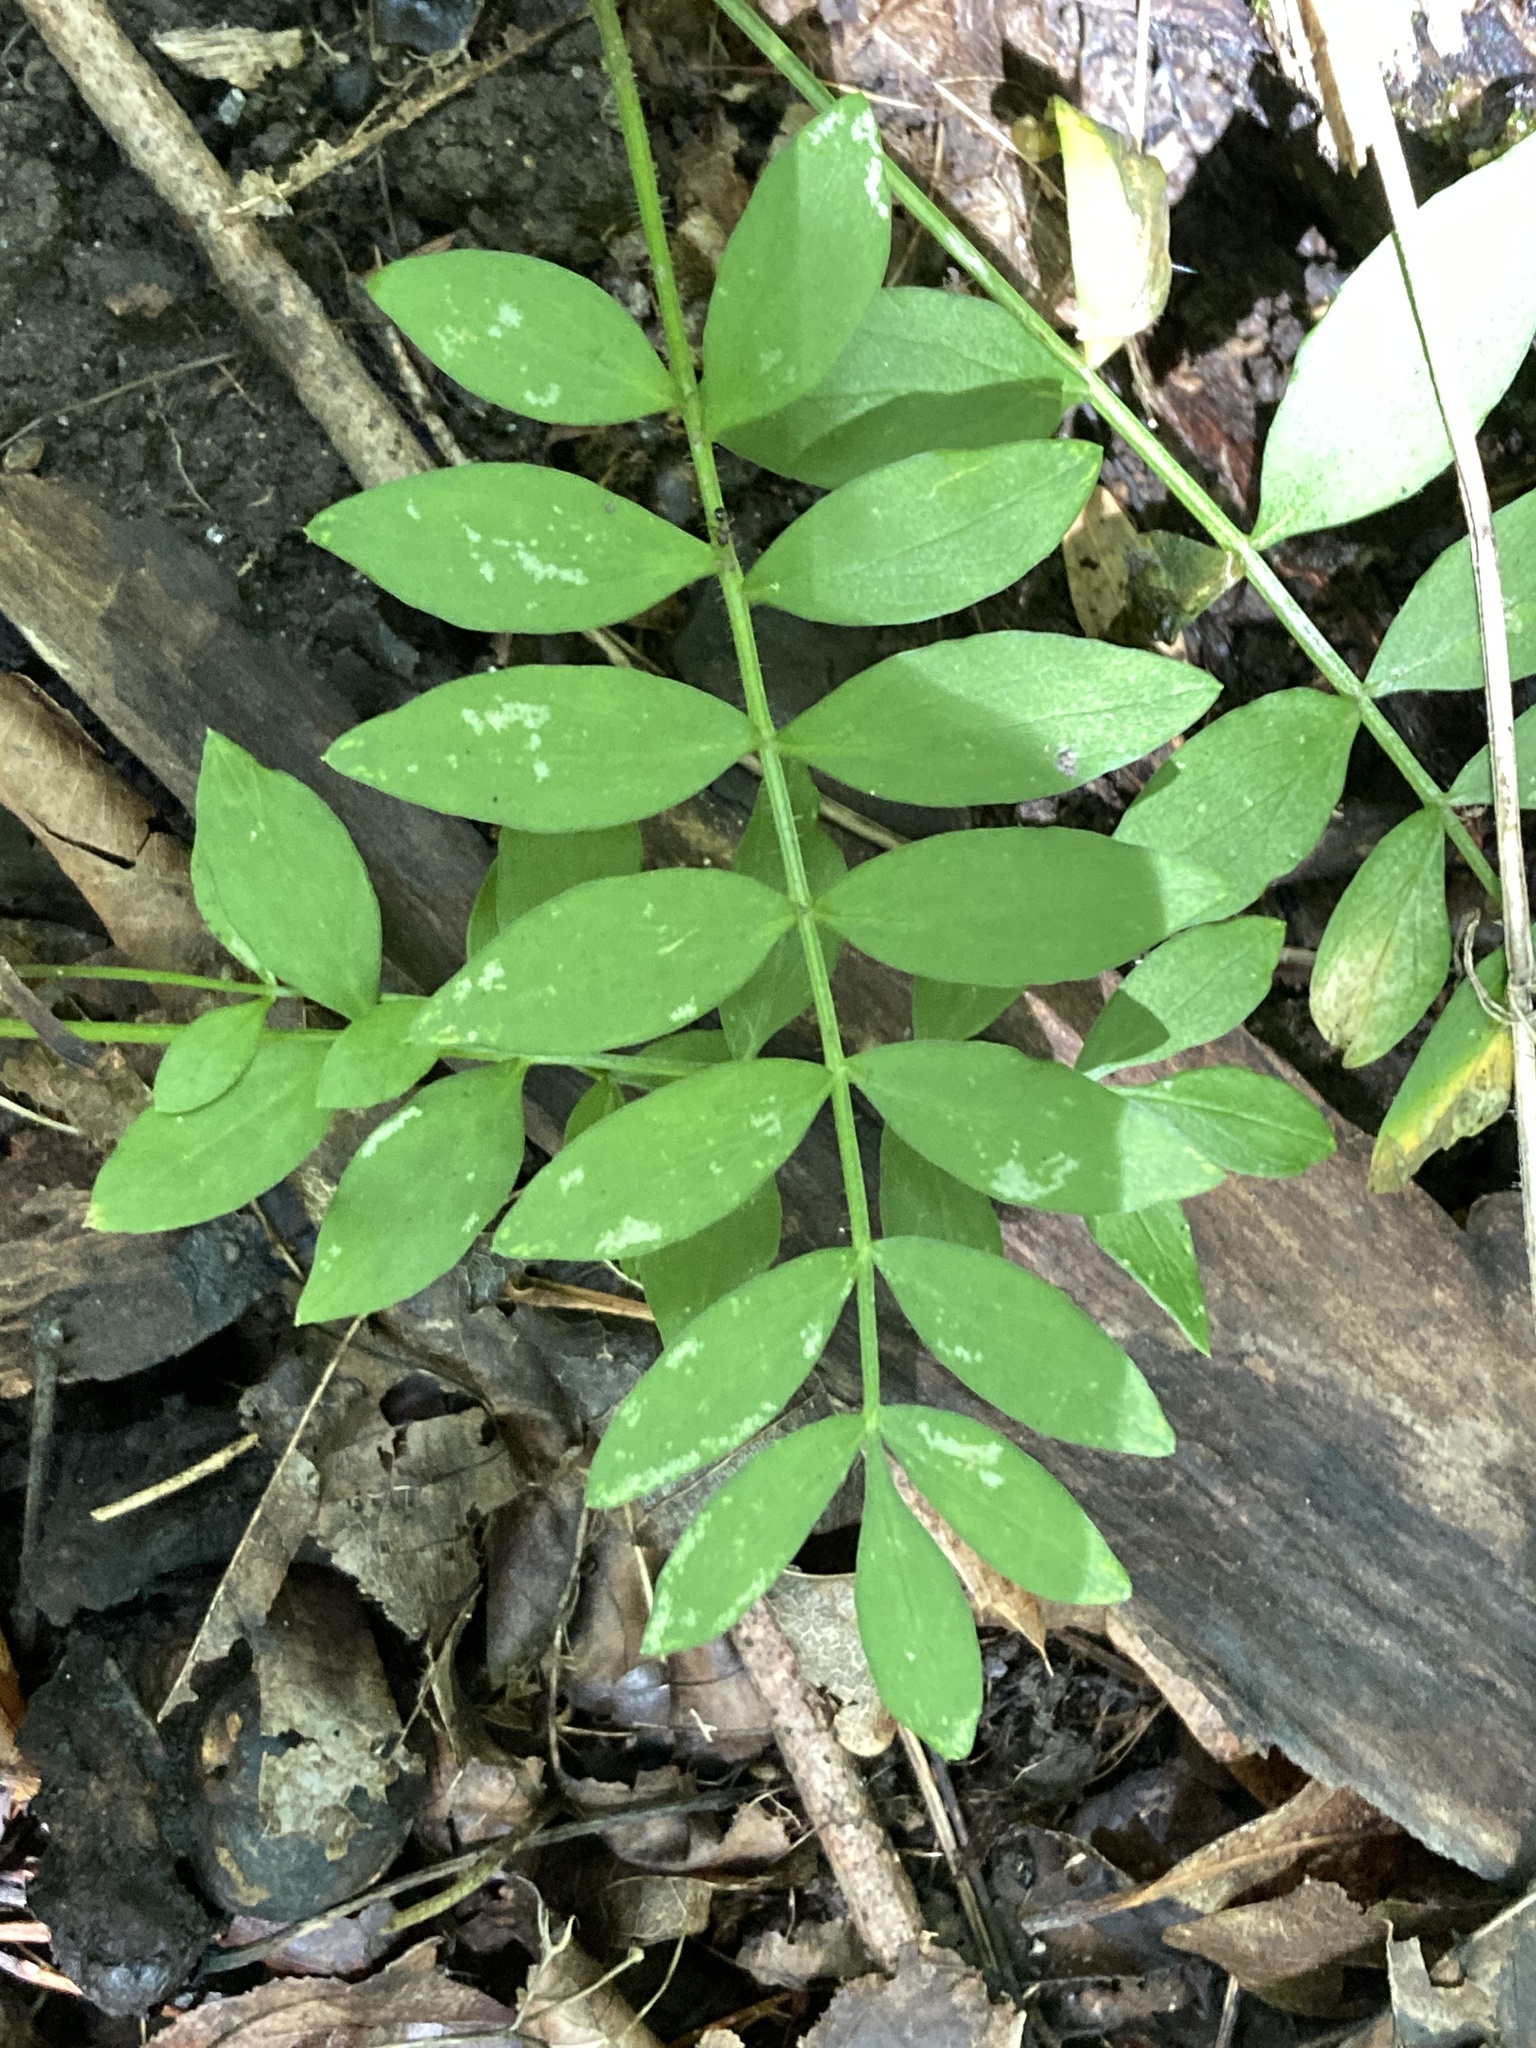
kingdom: Plantae
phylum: Tracheophyta
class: Magnoliopsida
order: Ericales
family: Polemoniaceae
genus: Polemonium
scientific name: Polemonium reptans
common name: Creeping jacob's-ladder
